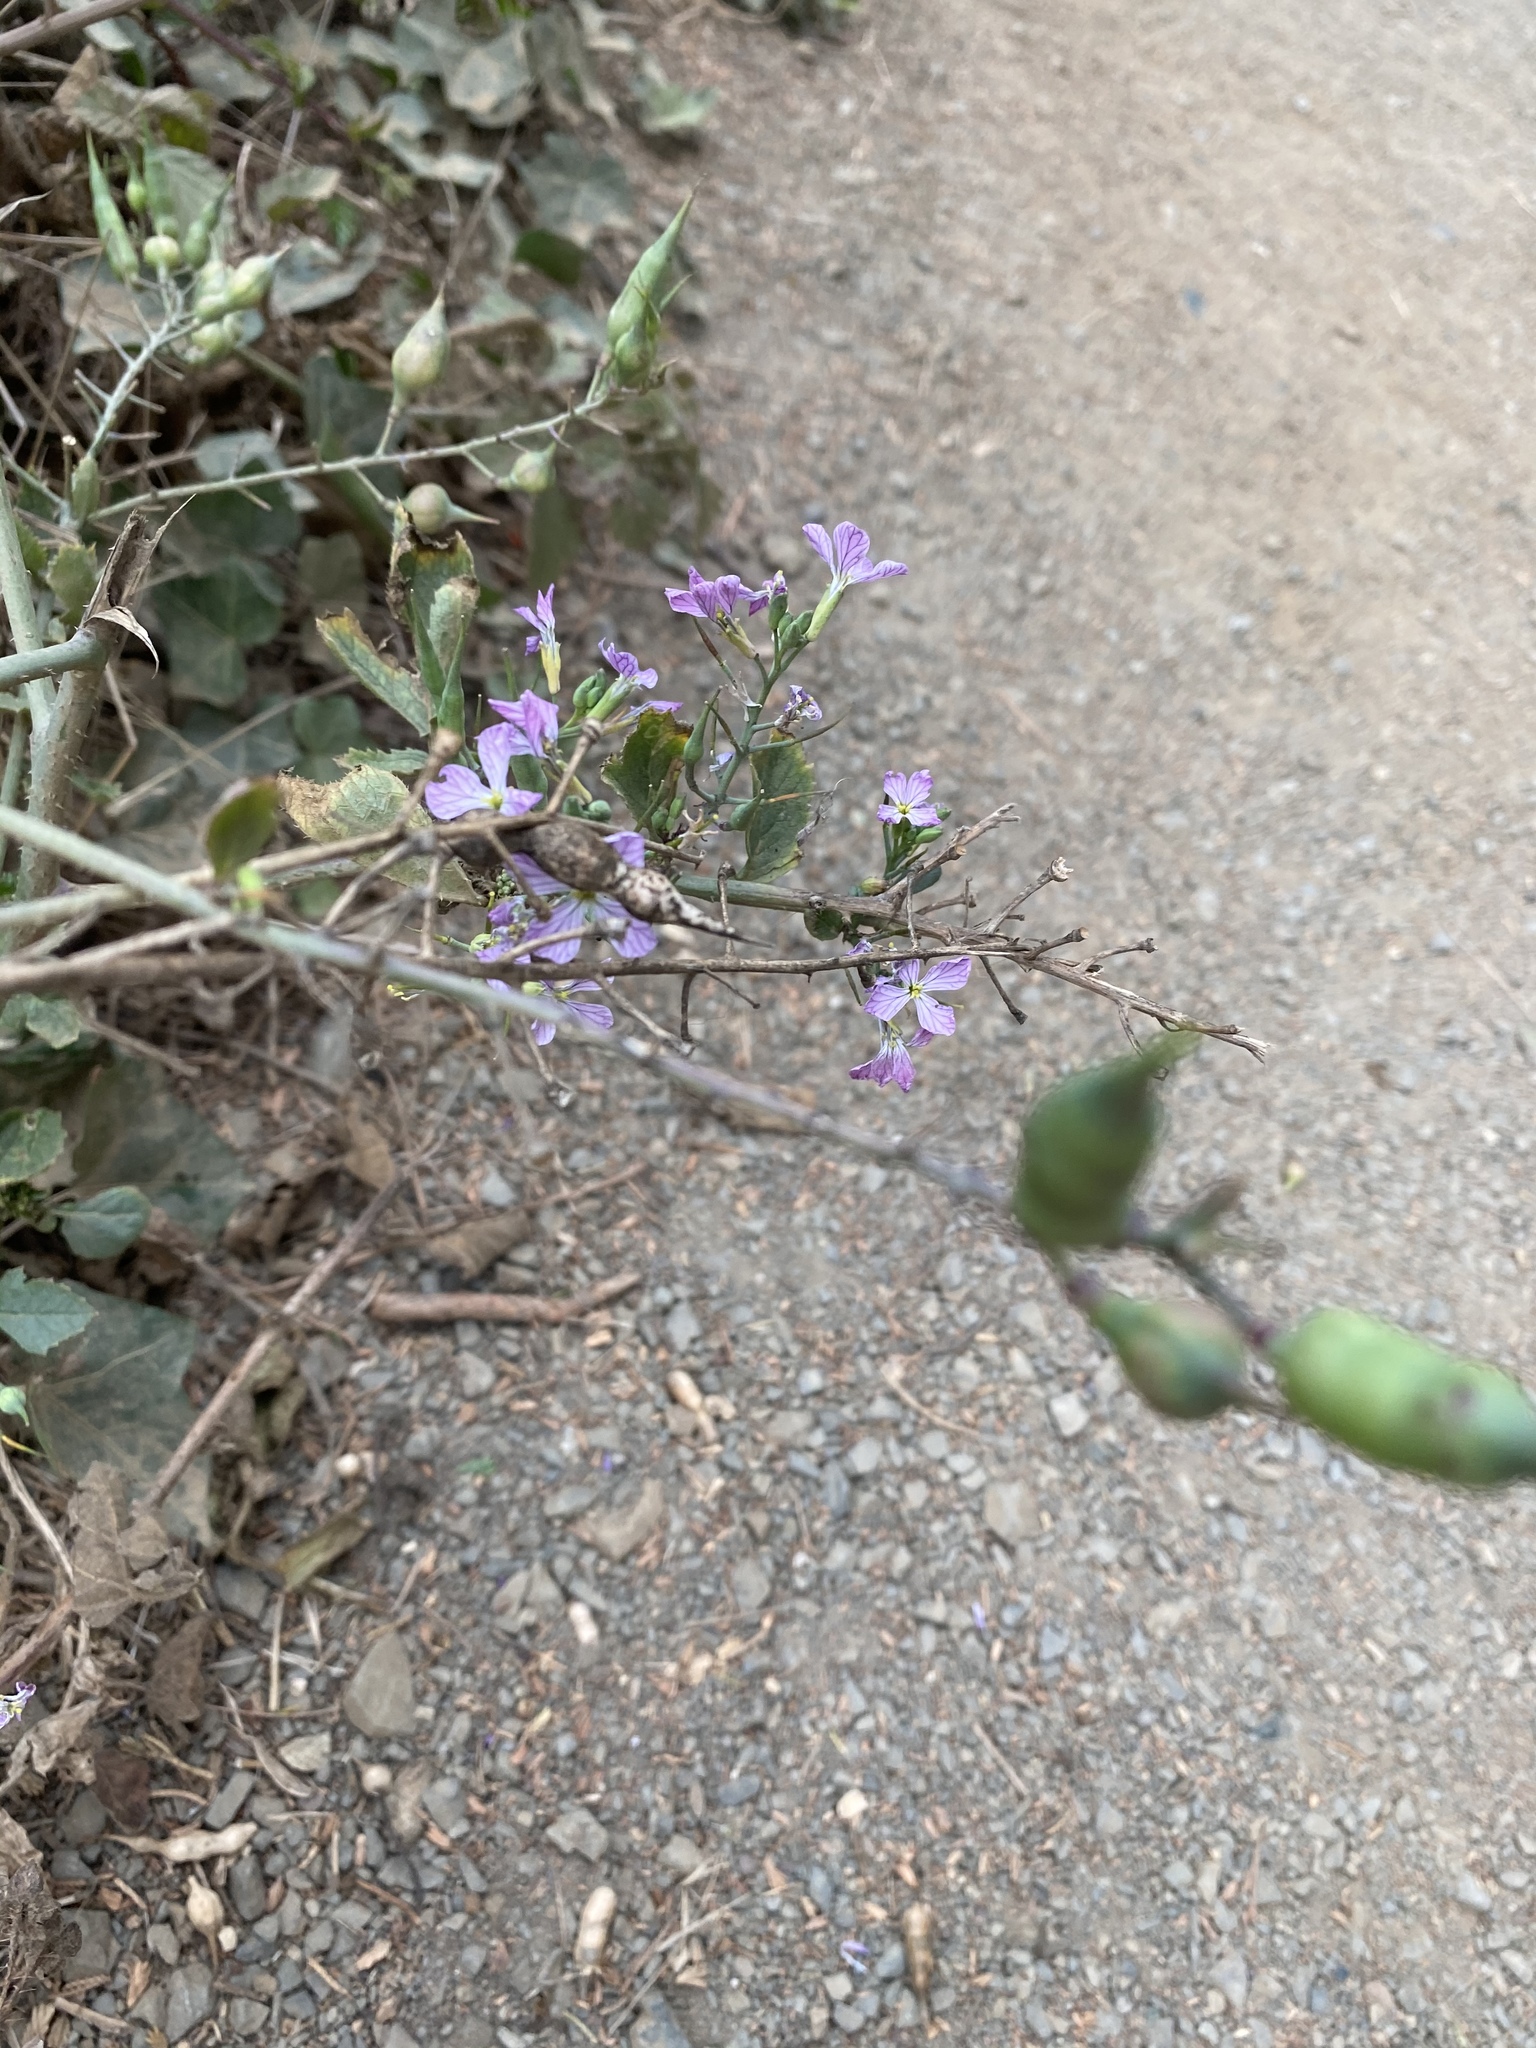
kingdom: Plantae
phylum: Tracheophyta
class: Magnoliopsida
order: Brassicales
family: Brassicaceae
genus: Raphanus
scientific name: Raphanus sativus
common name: Cultivated radish
